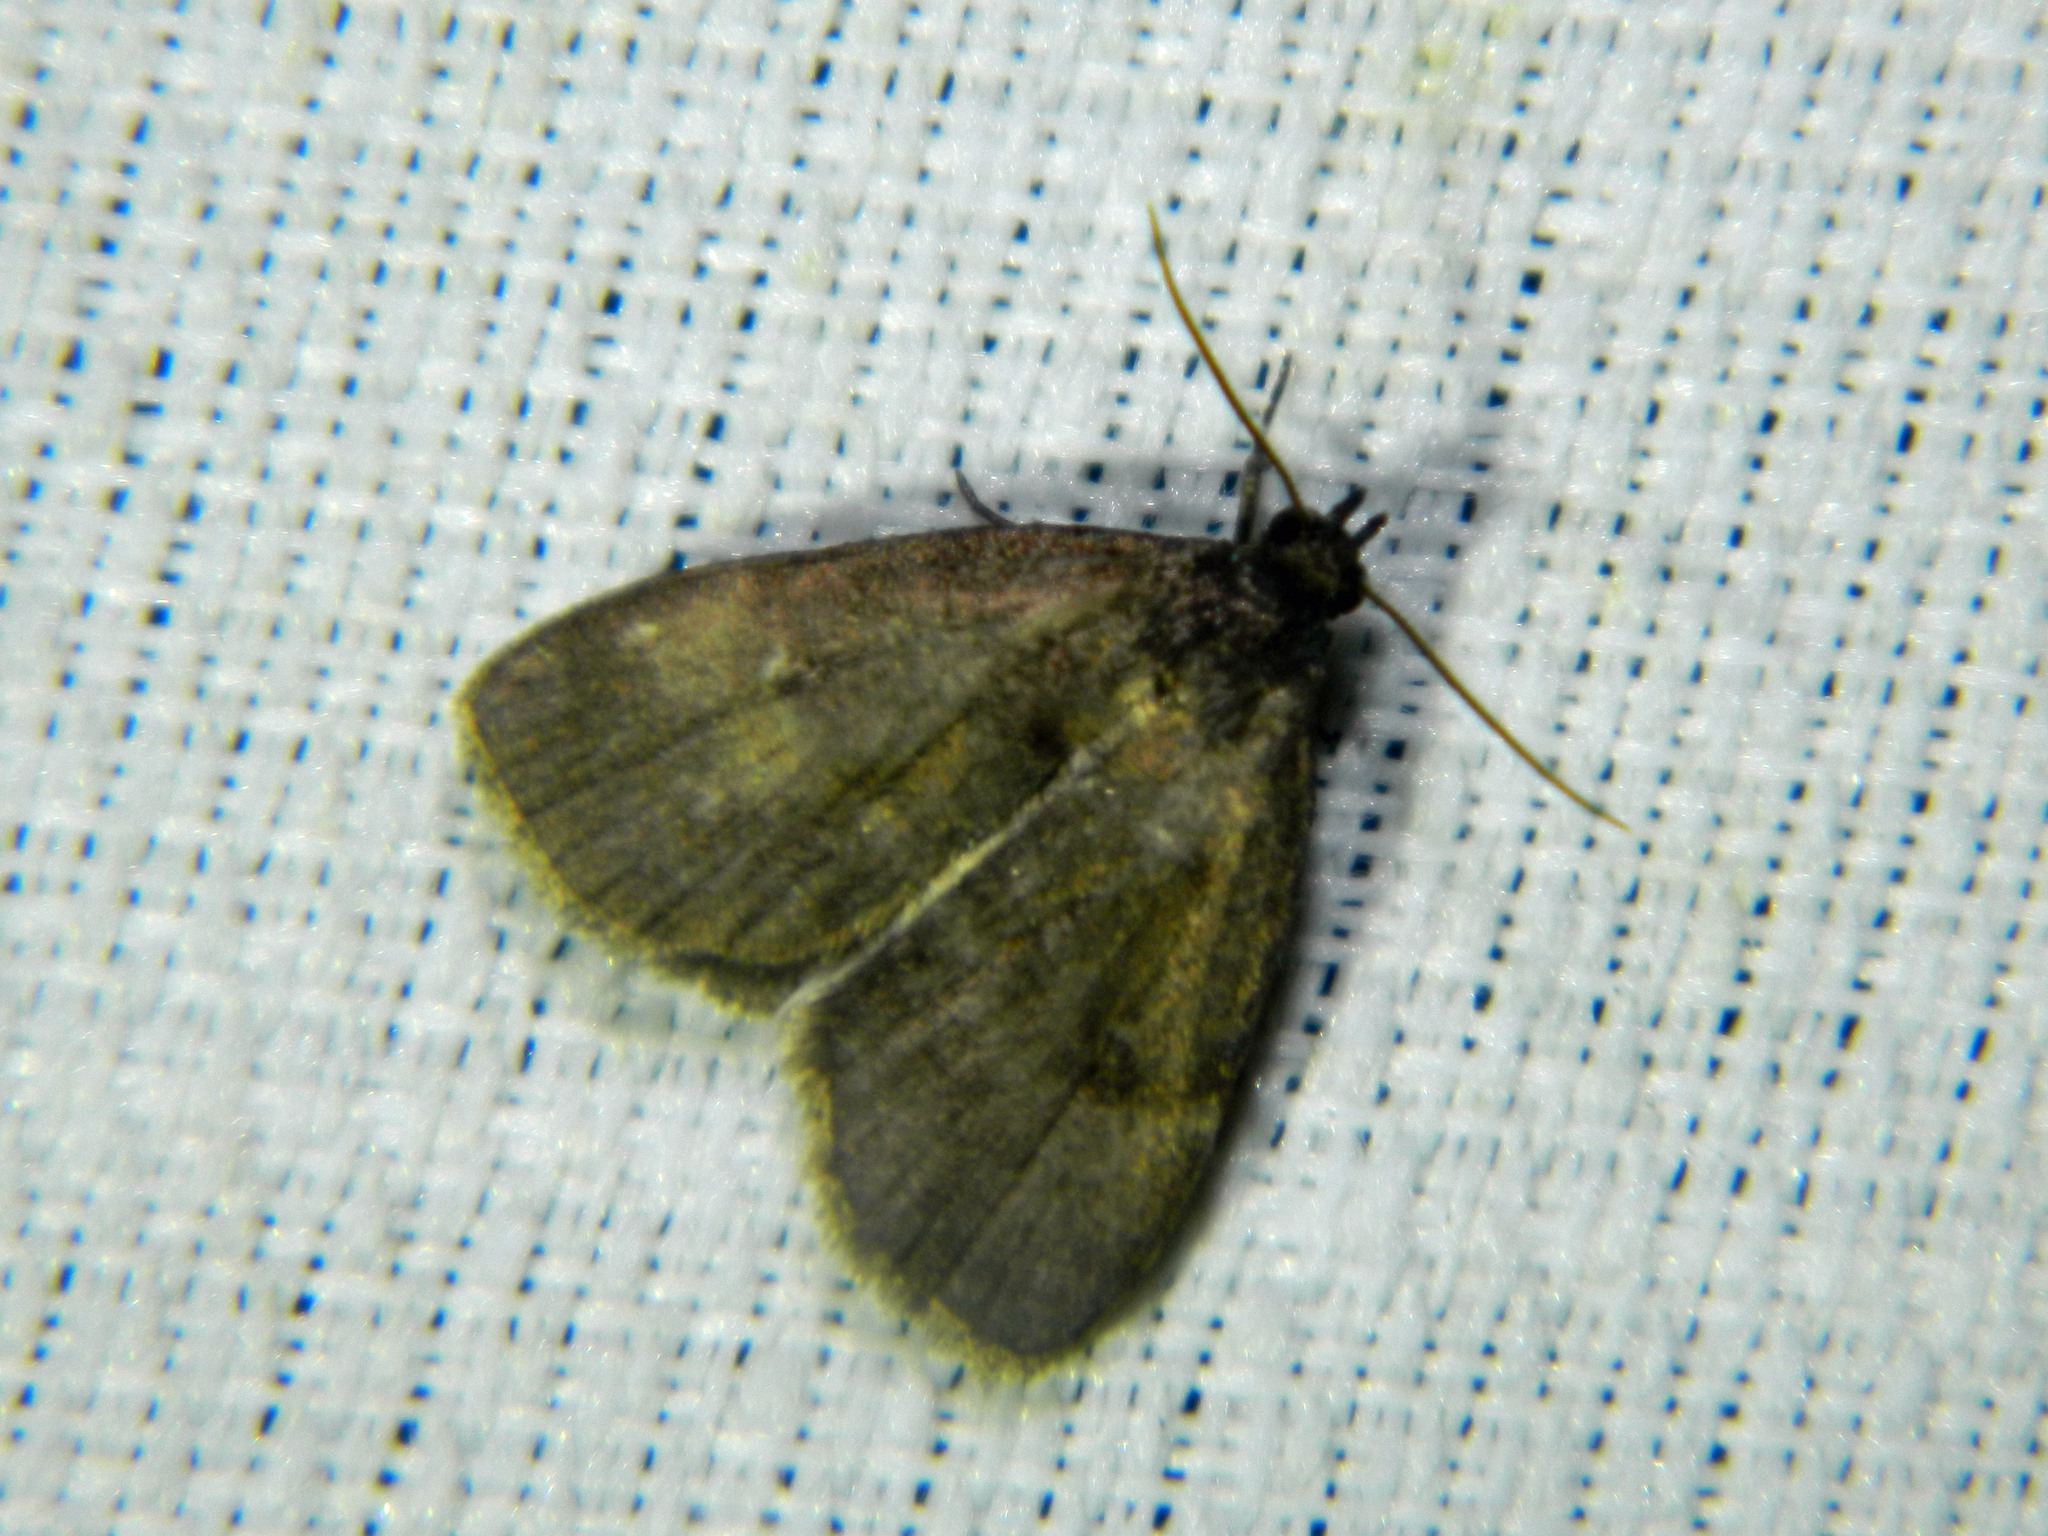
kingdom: Animalia
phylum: Arthropoda
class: Insecta
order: Lepidoptera
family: Erebidae
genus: Idia
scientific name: Idia rotundalis
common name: Rotund idia moth
